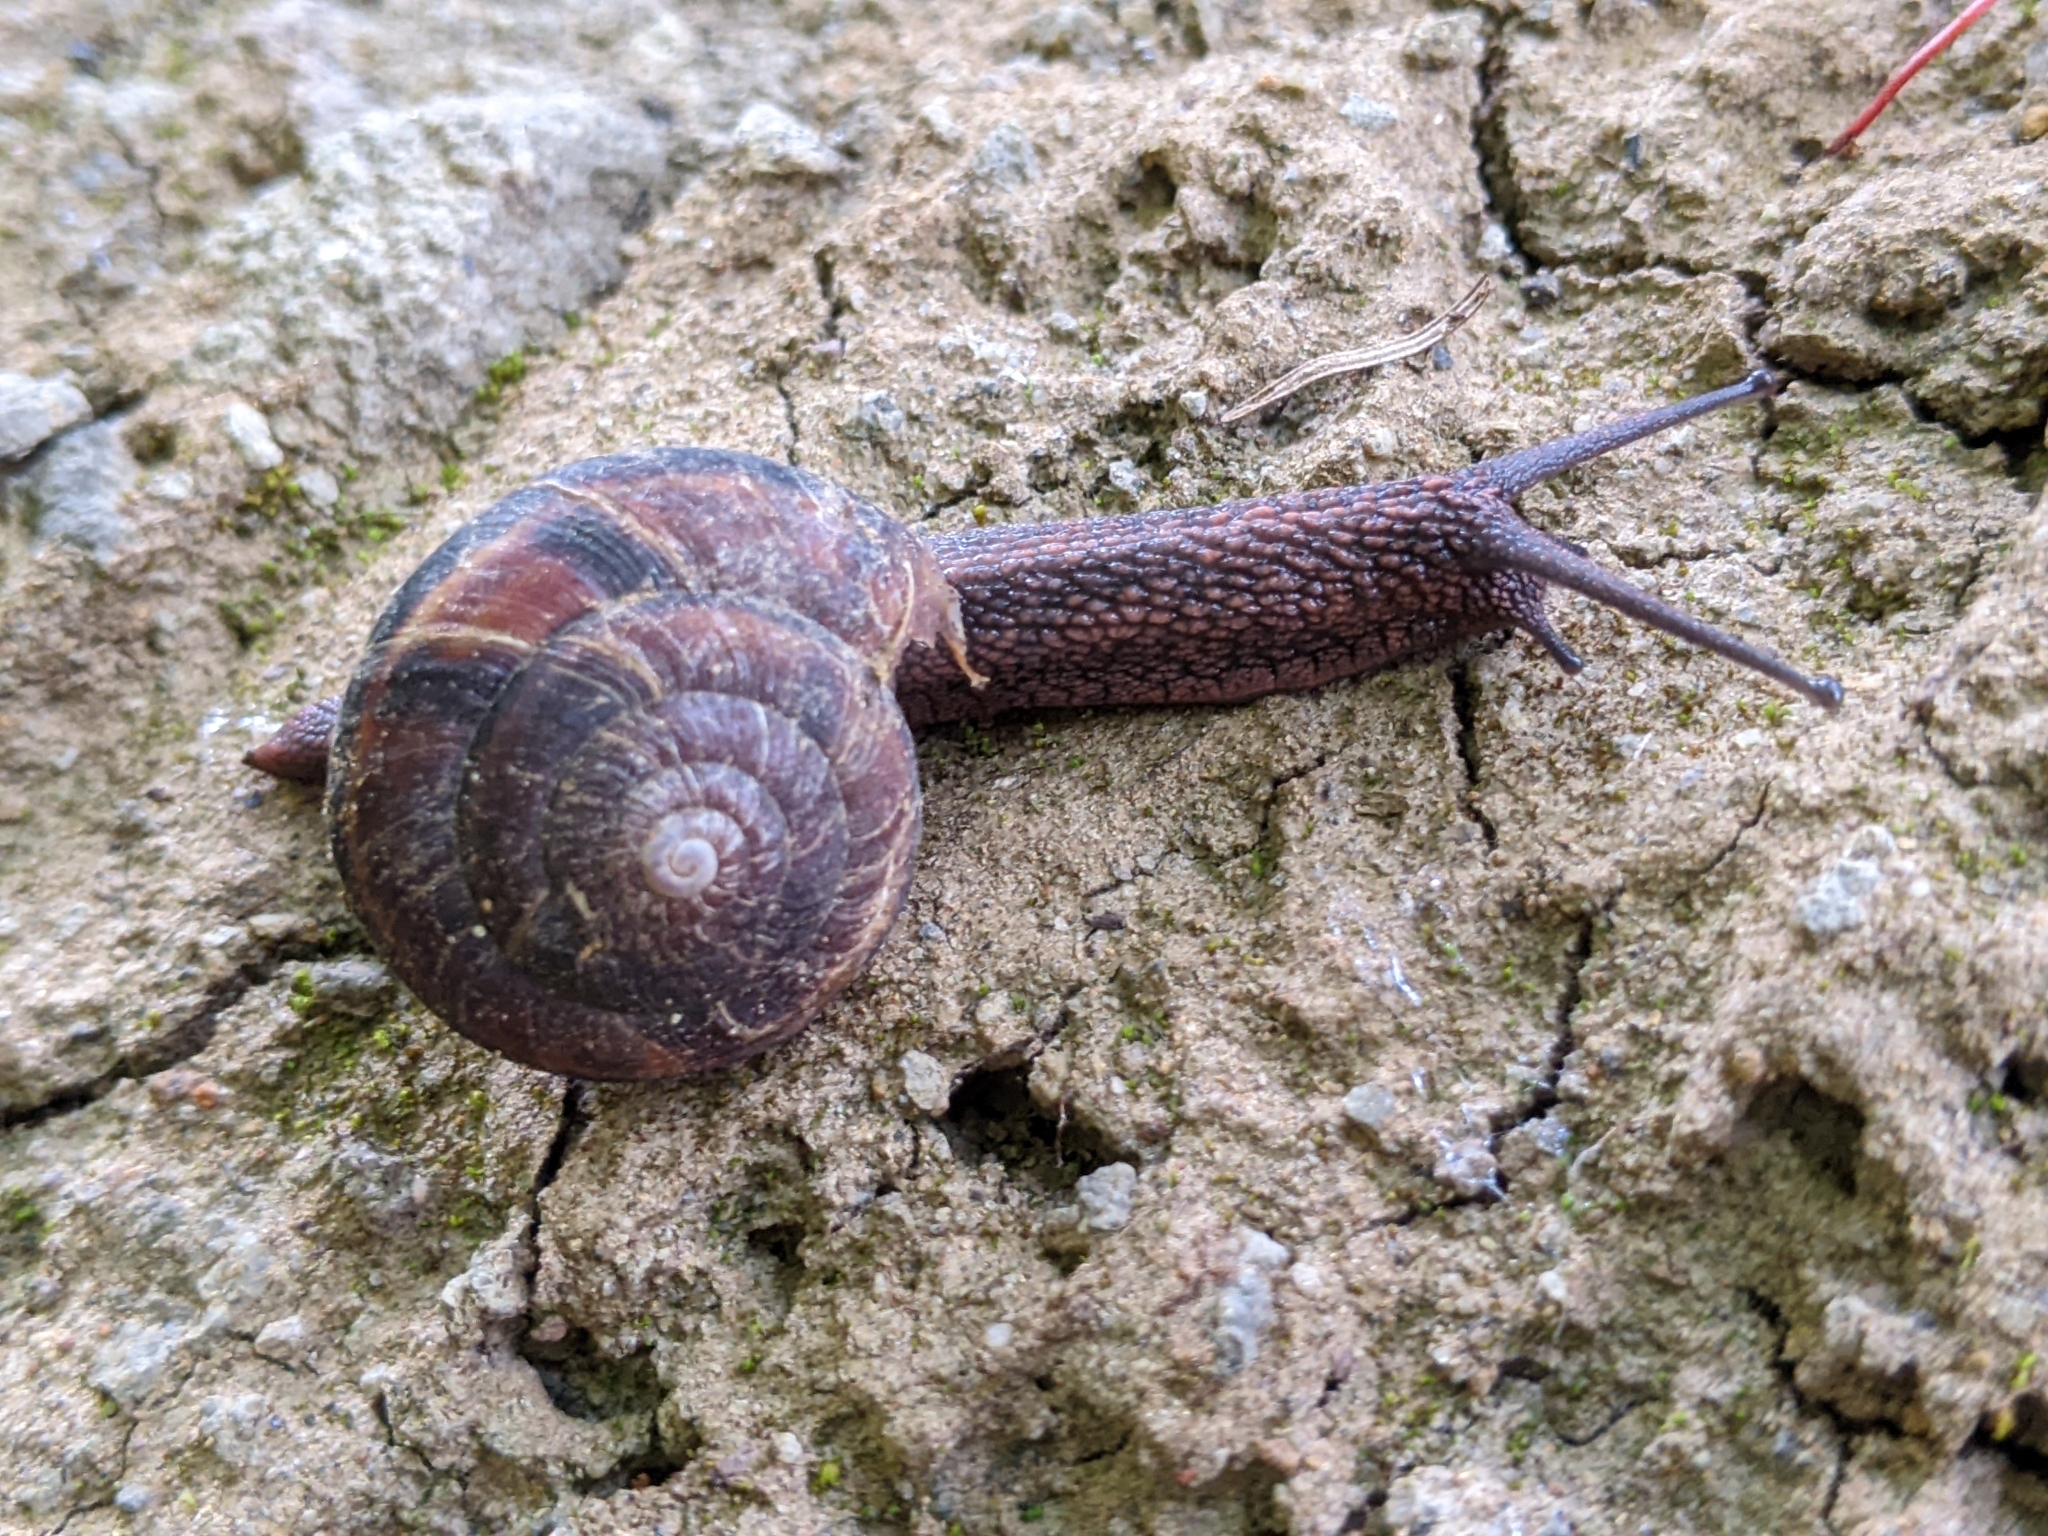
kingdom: Animalia
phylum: Mollusca
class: Gastropoda
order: Stylommatophora
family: Xanthonychidae
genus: Monadenia
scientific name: Monadenia fidelis
